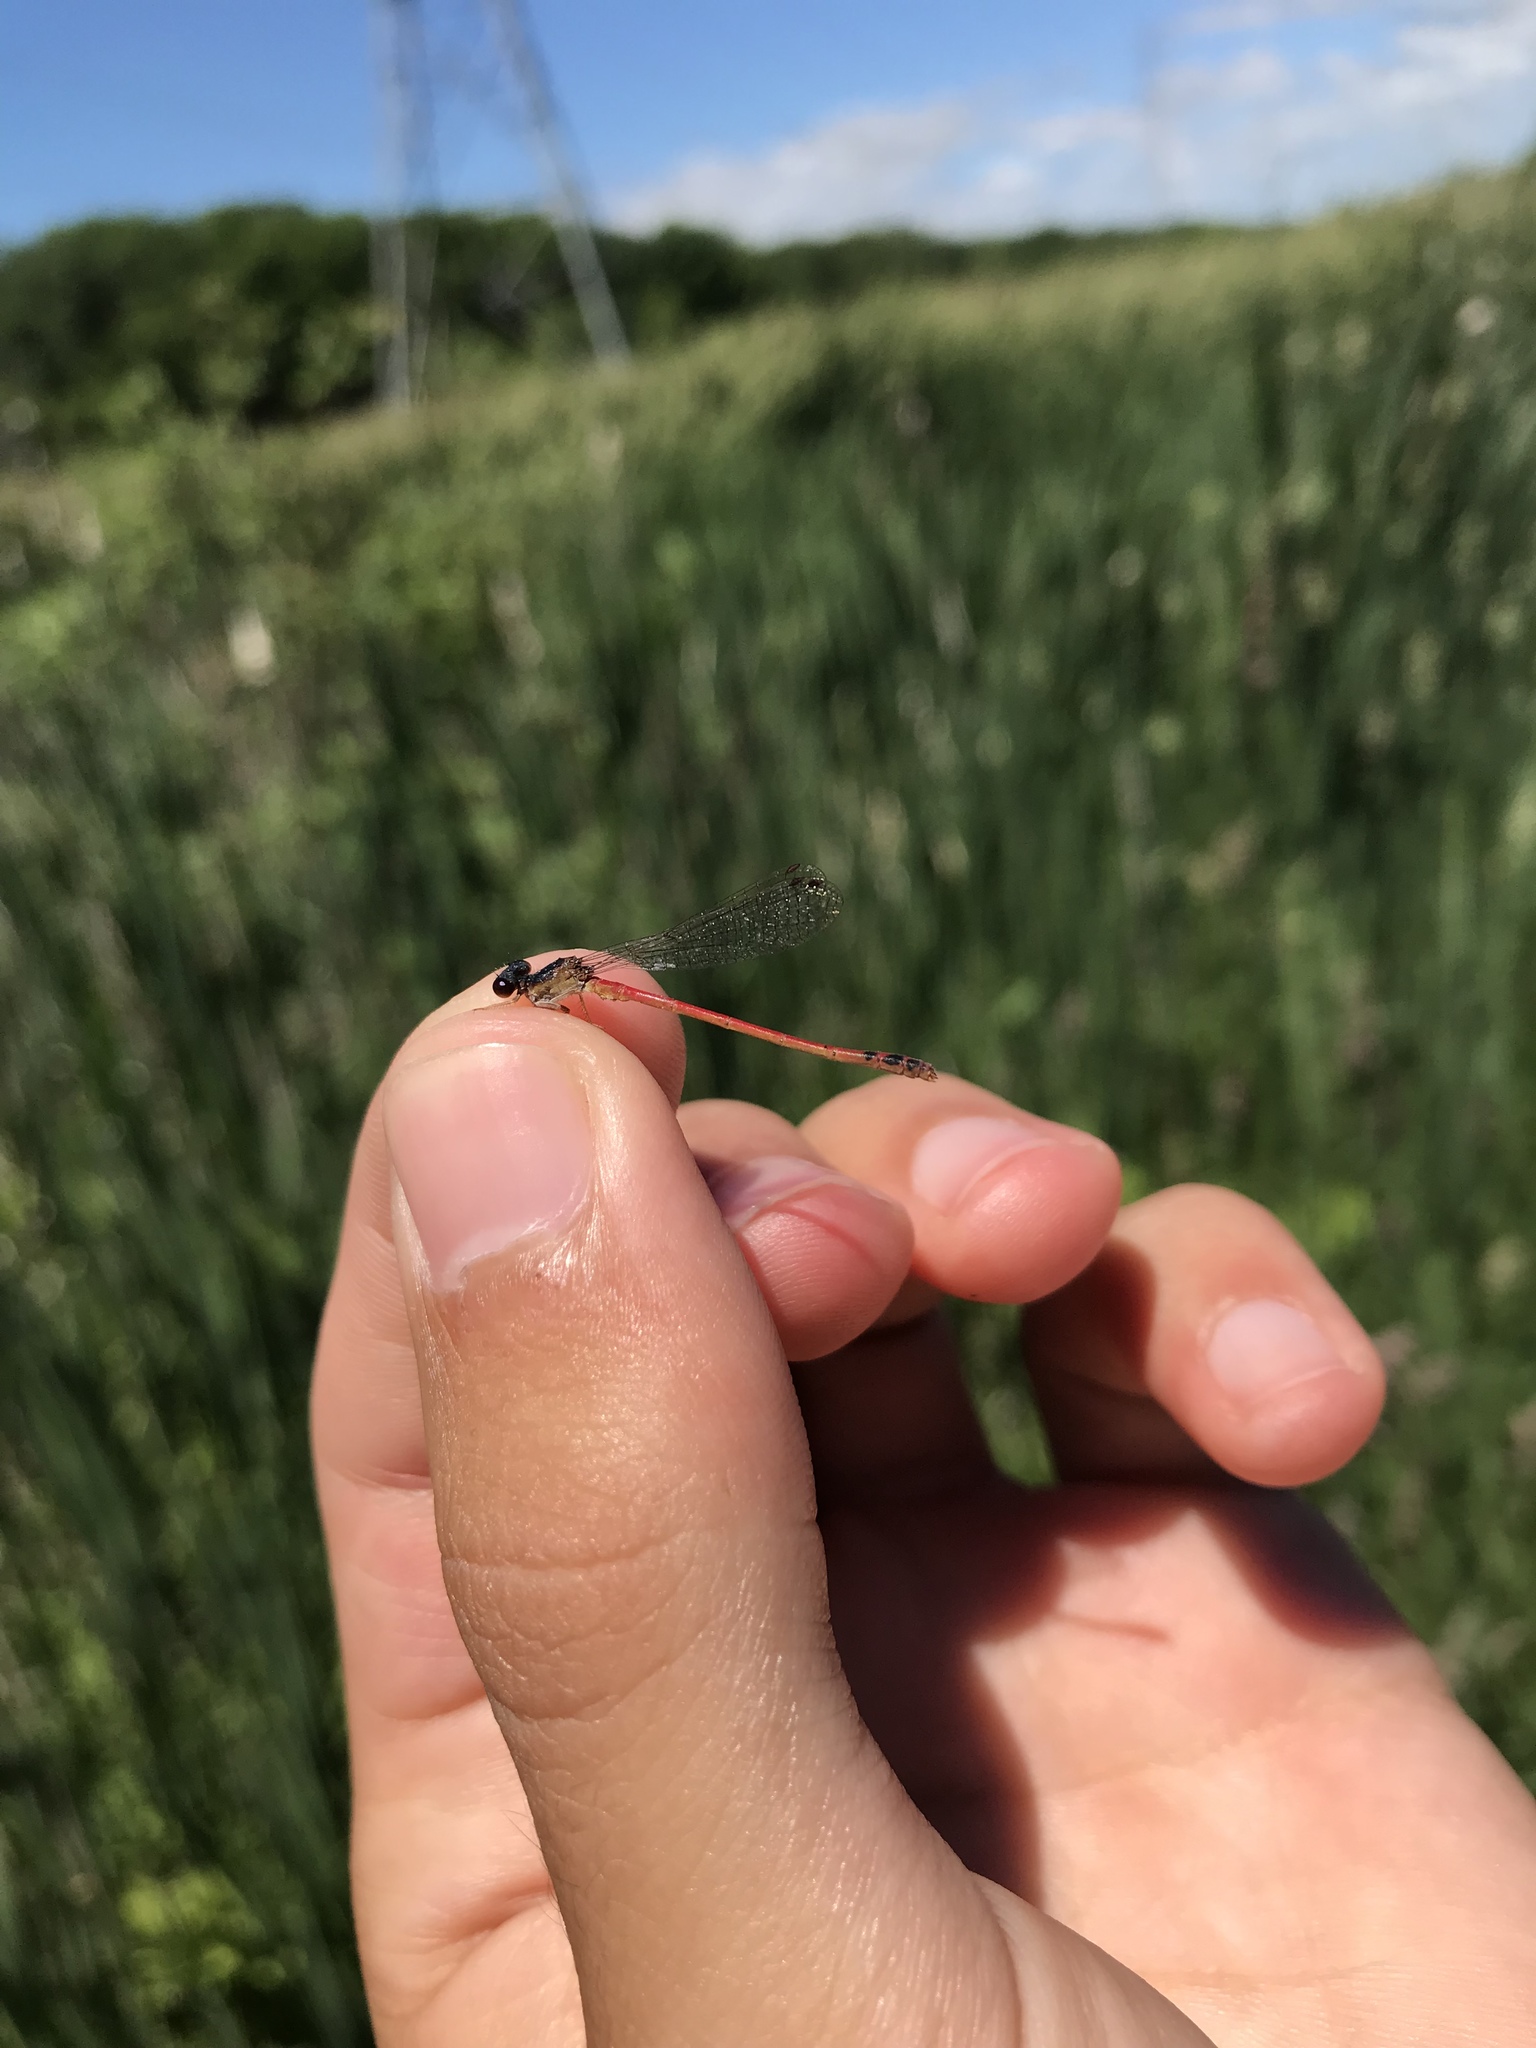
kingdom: Animalia
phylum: Arthropoda
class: Insecta
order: Odonata
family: Coenagrionidae
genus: Amphiagrion
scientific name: Amphiagrion saucium
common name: Eastern red damsel
